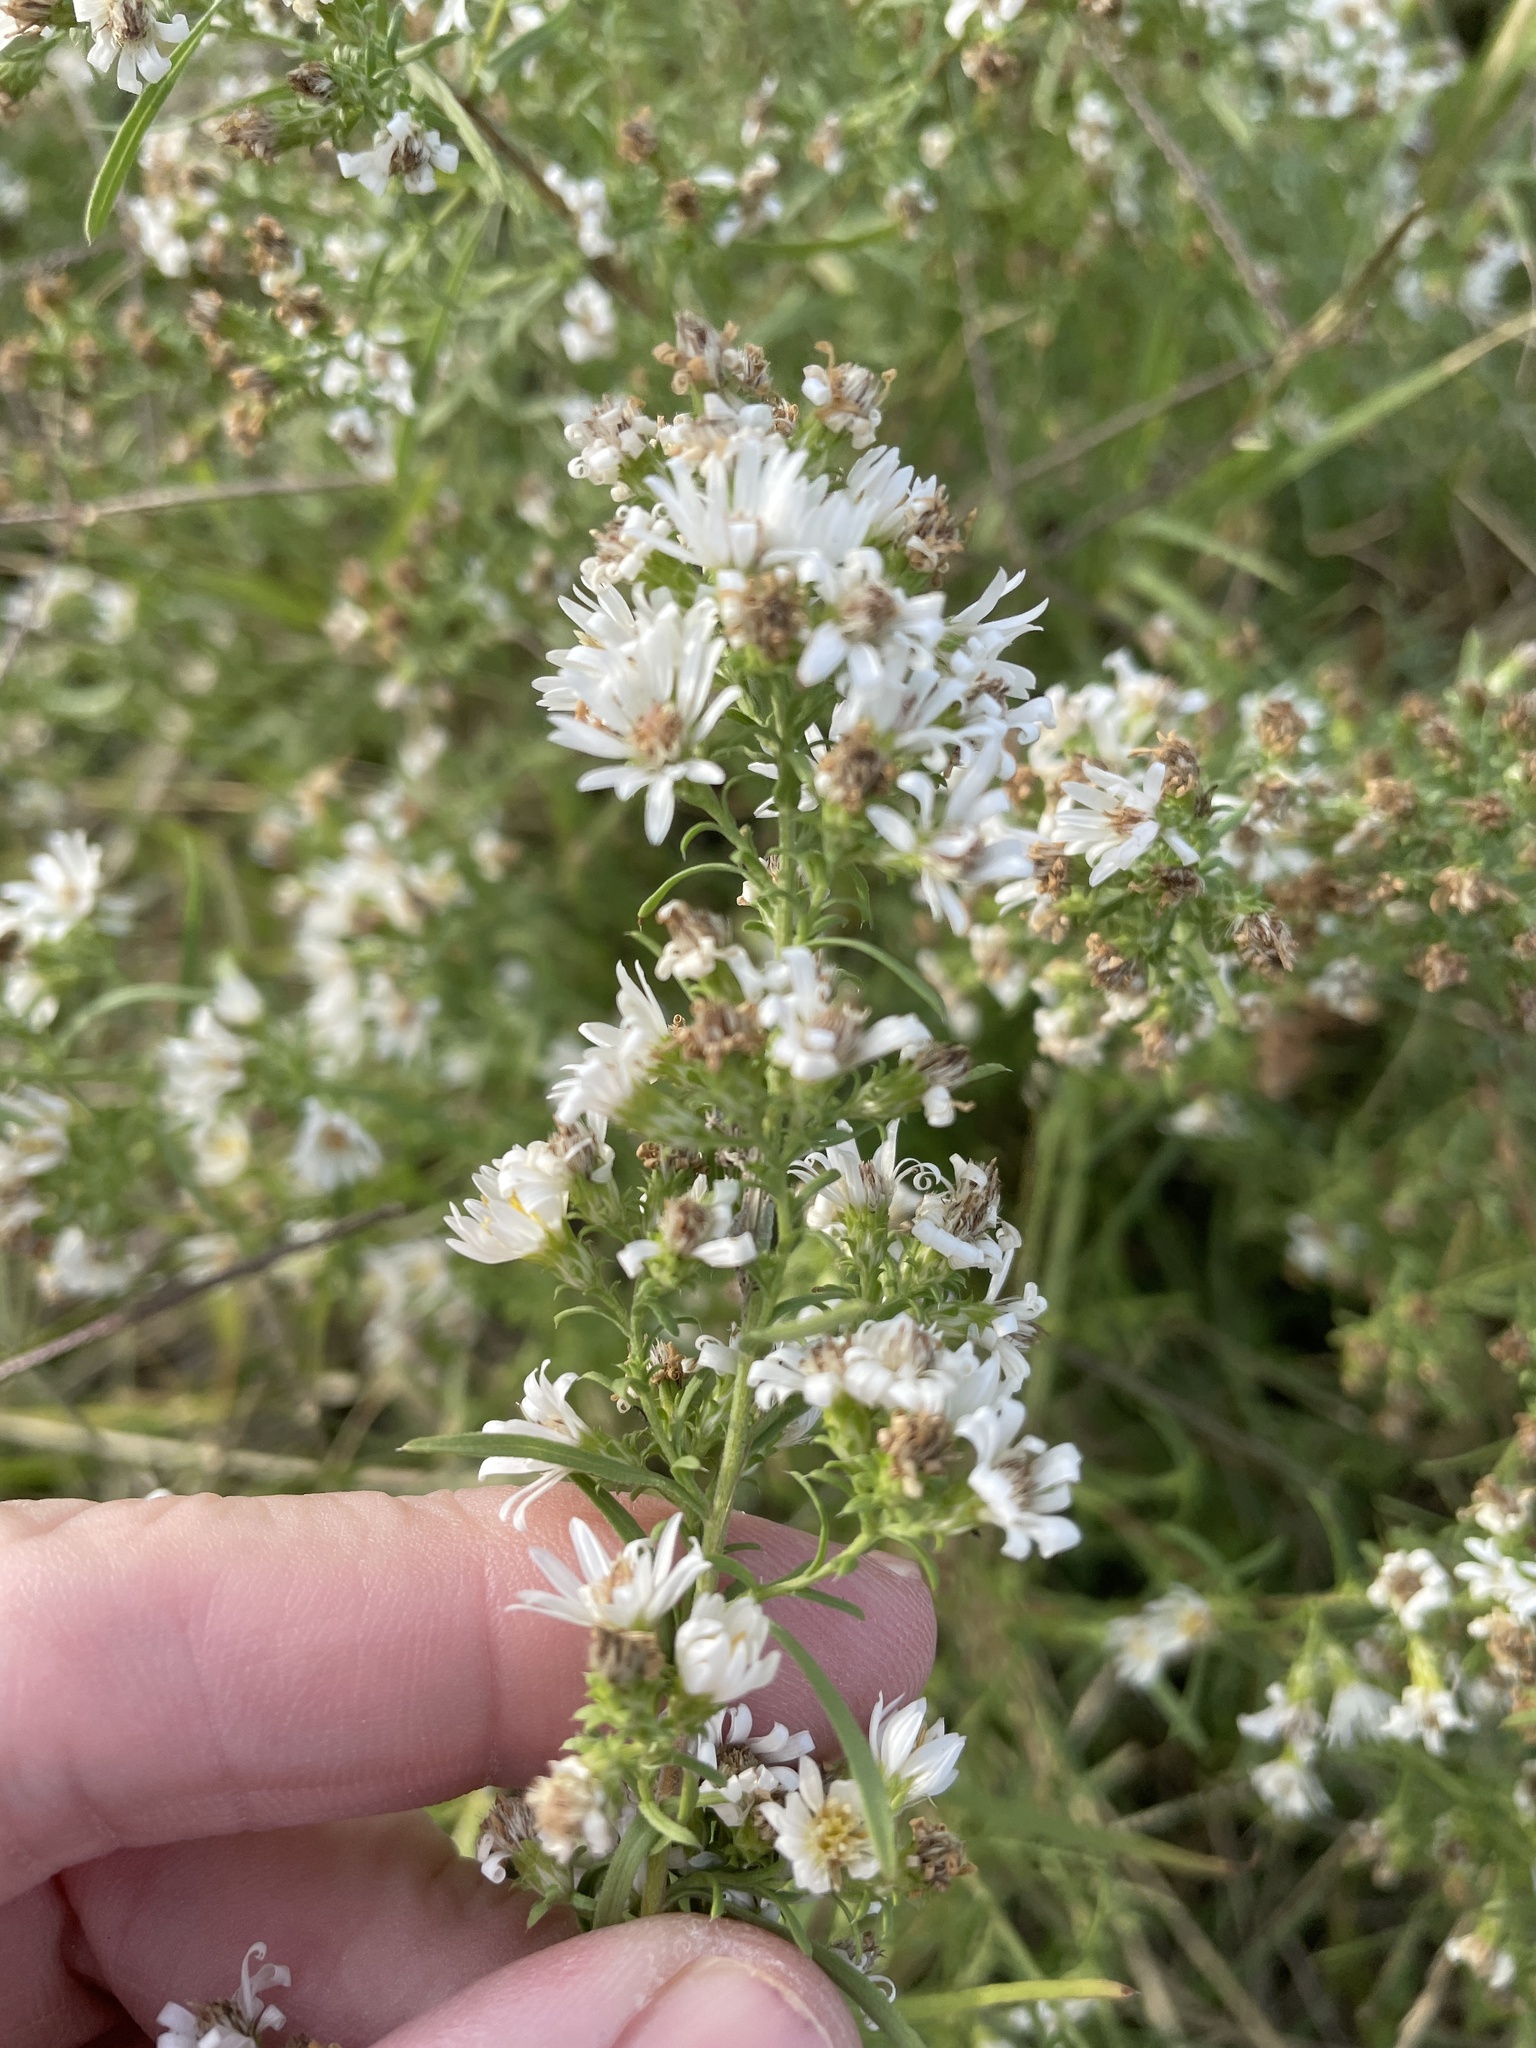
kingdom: Plantae
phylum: Tracheophyta
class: Magnoliopsida
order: Asterales
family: Asteraceae
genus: Symphyotrichum
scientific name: Symphyotrichum ericoides
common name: Heath aster
